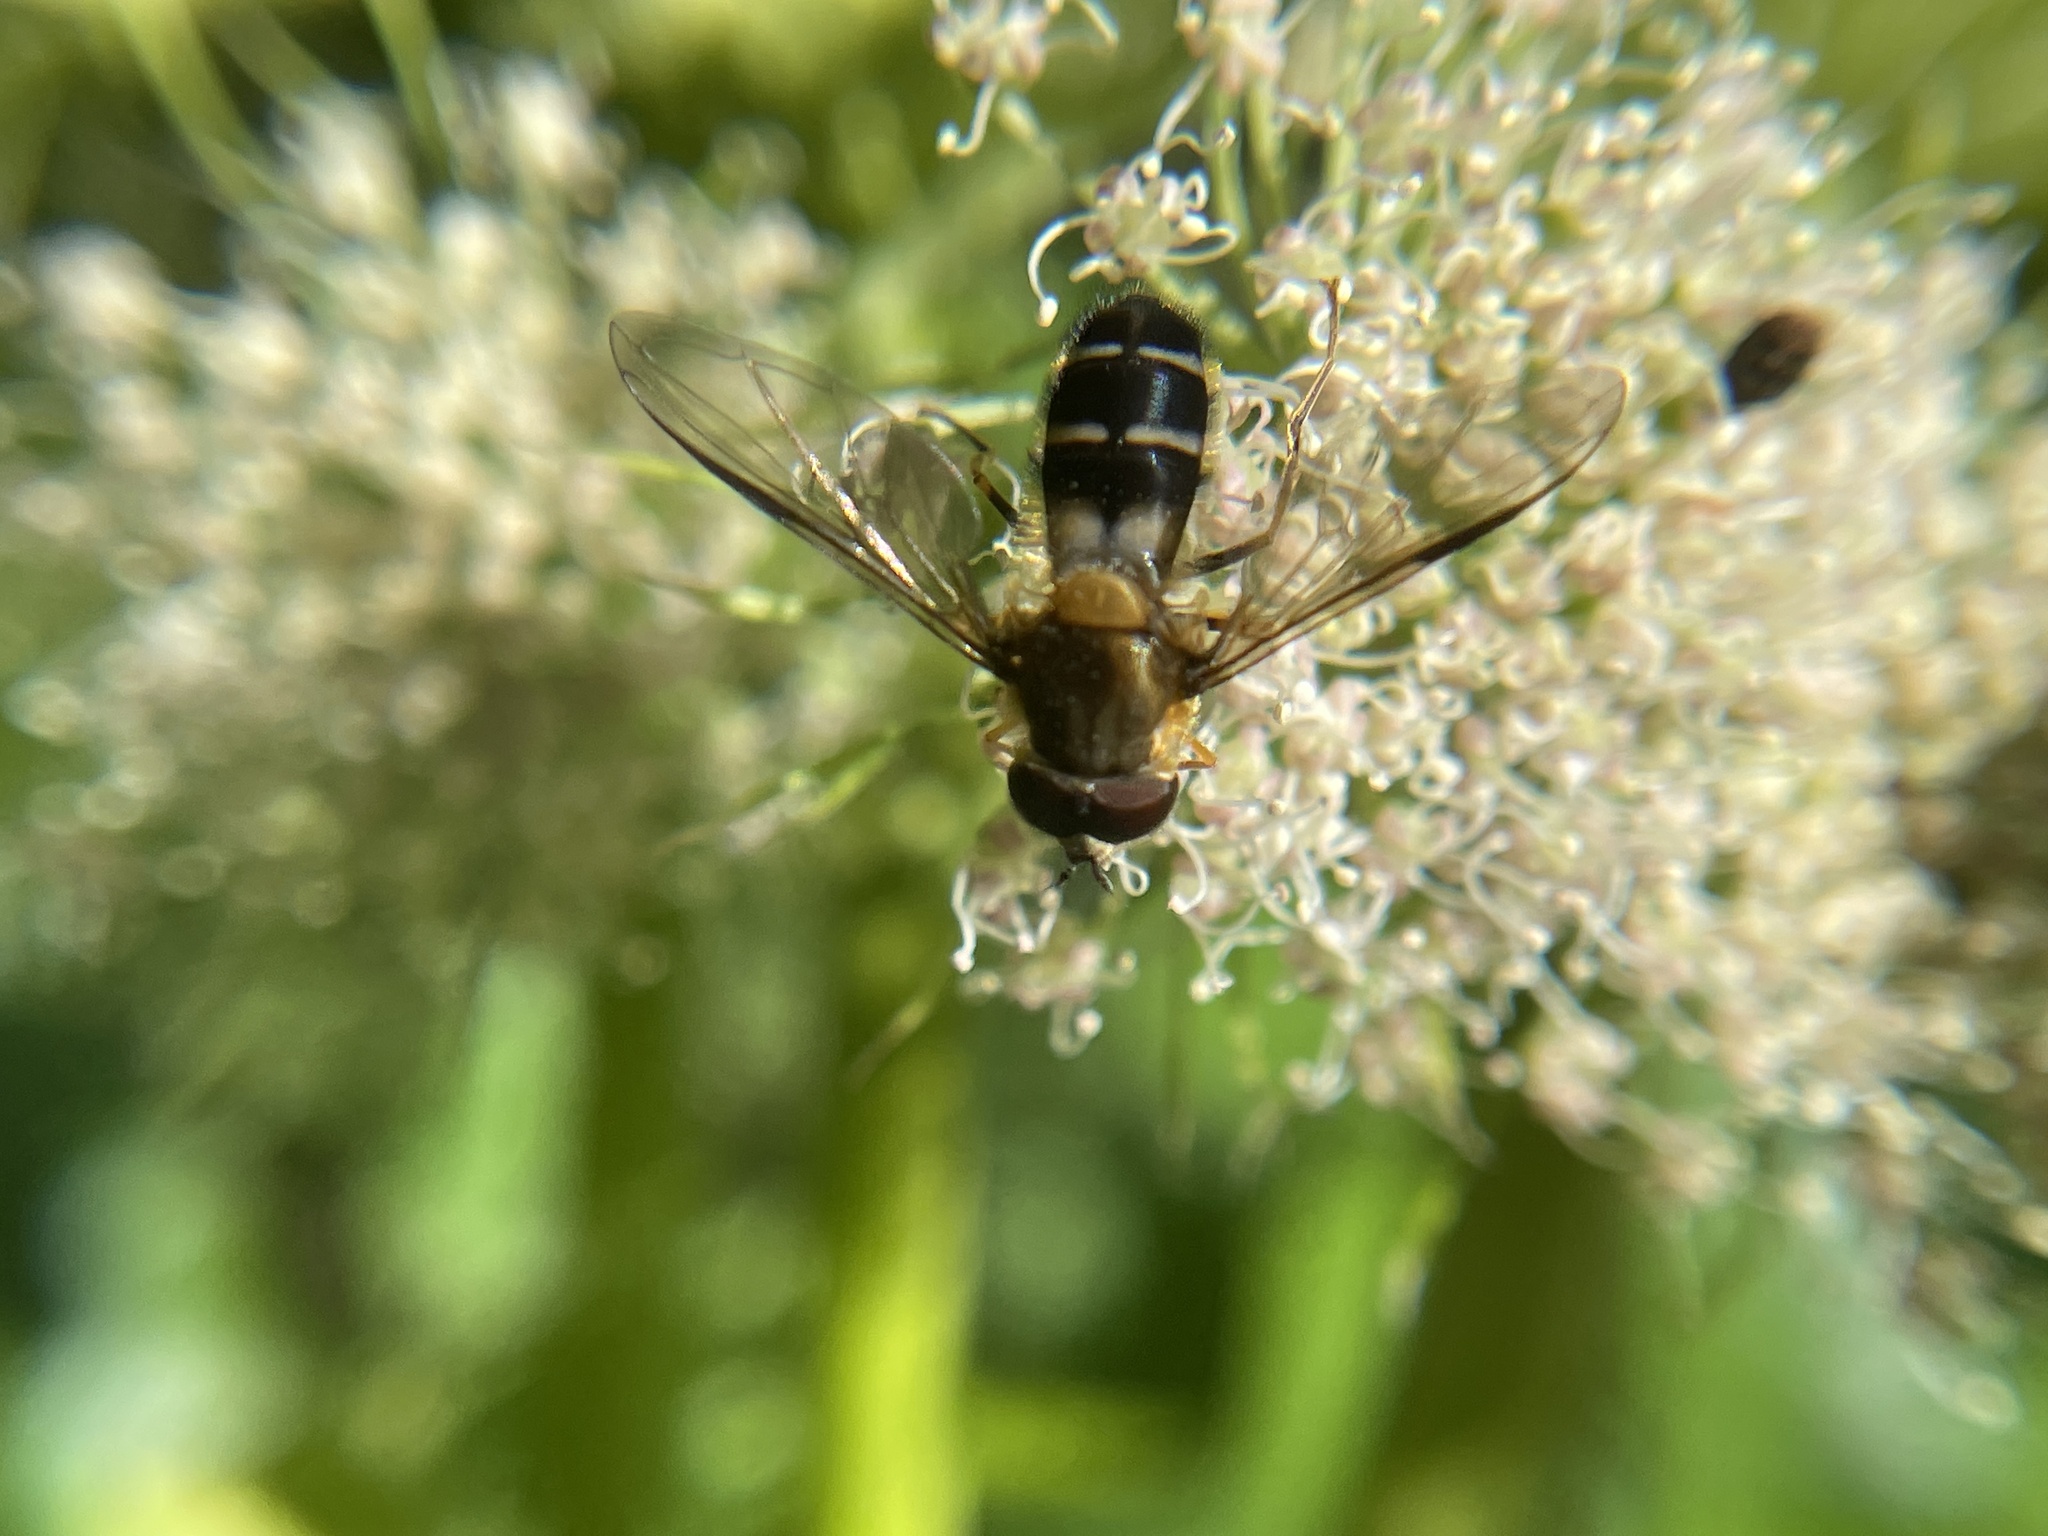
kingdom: Animalia
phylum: Arthropoda
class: Insecta
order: Diptera
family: Syrphidae
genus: Leucozona
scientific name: Leucozona glaucia
